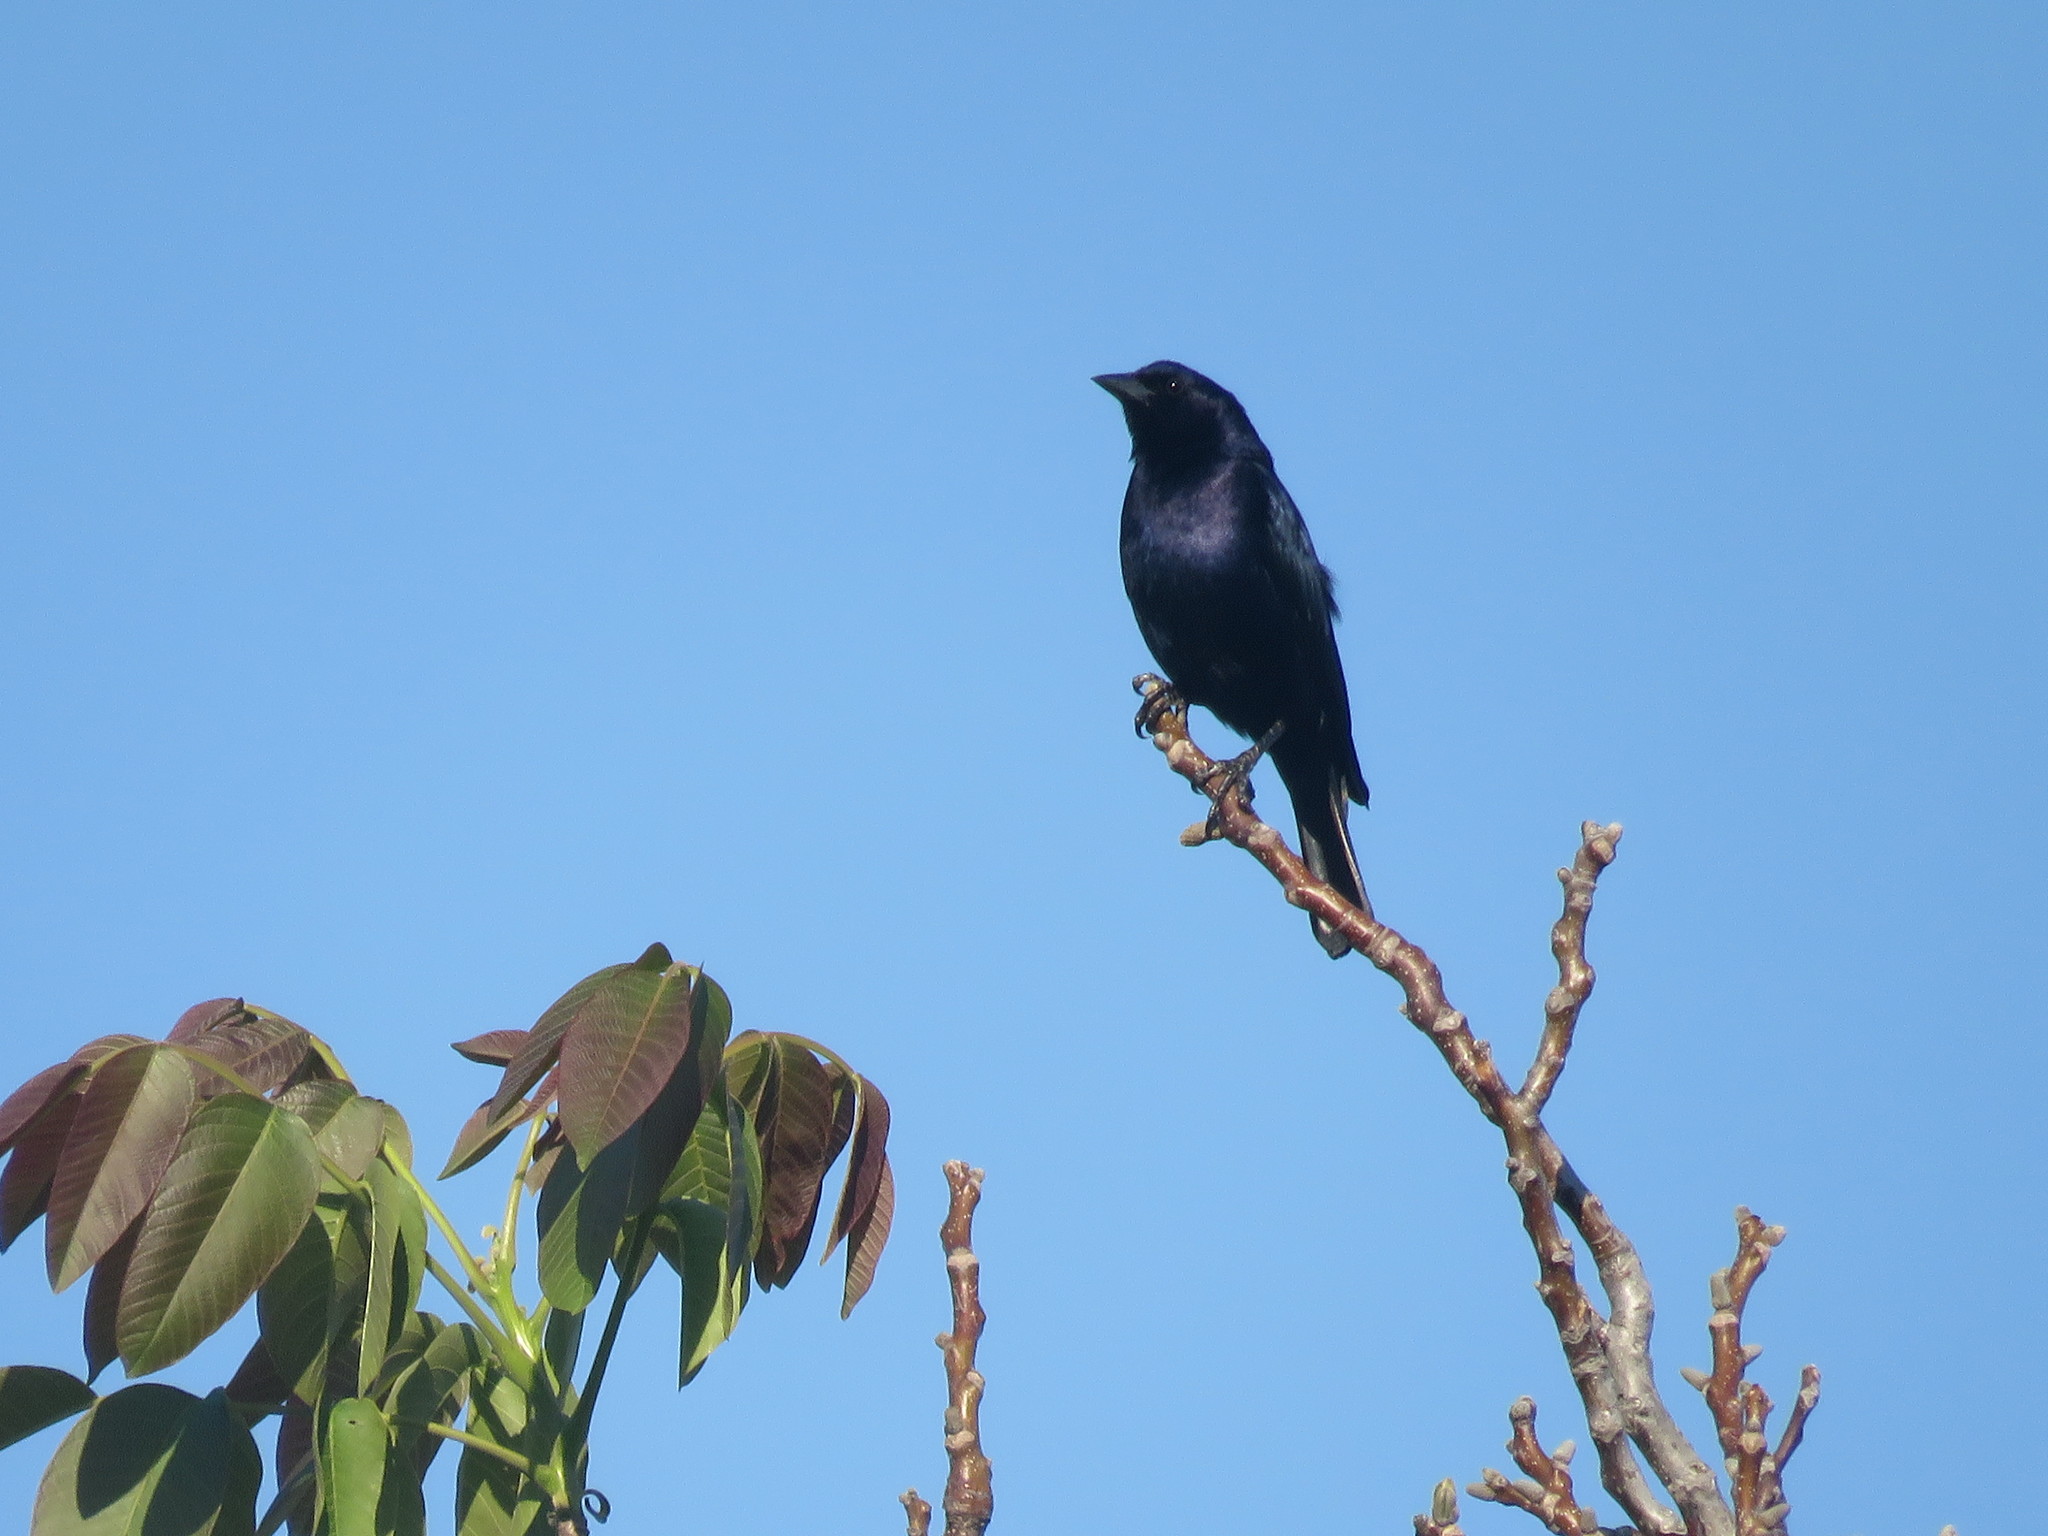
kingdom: Animalia
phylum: Chordata
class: Aves
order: Passeriformes
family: Icteridae
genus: Molothrus
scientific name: Molothrus bonariensis
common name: Shiny cowbird
